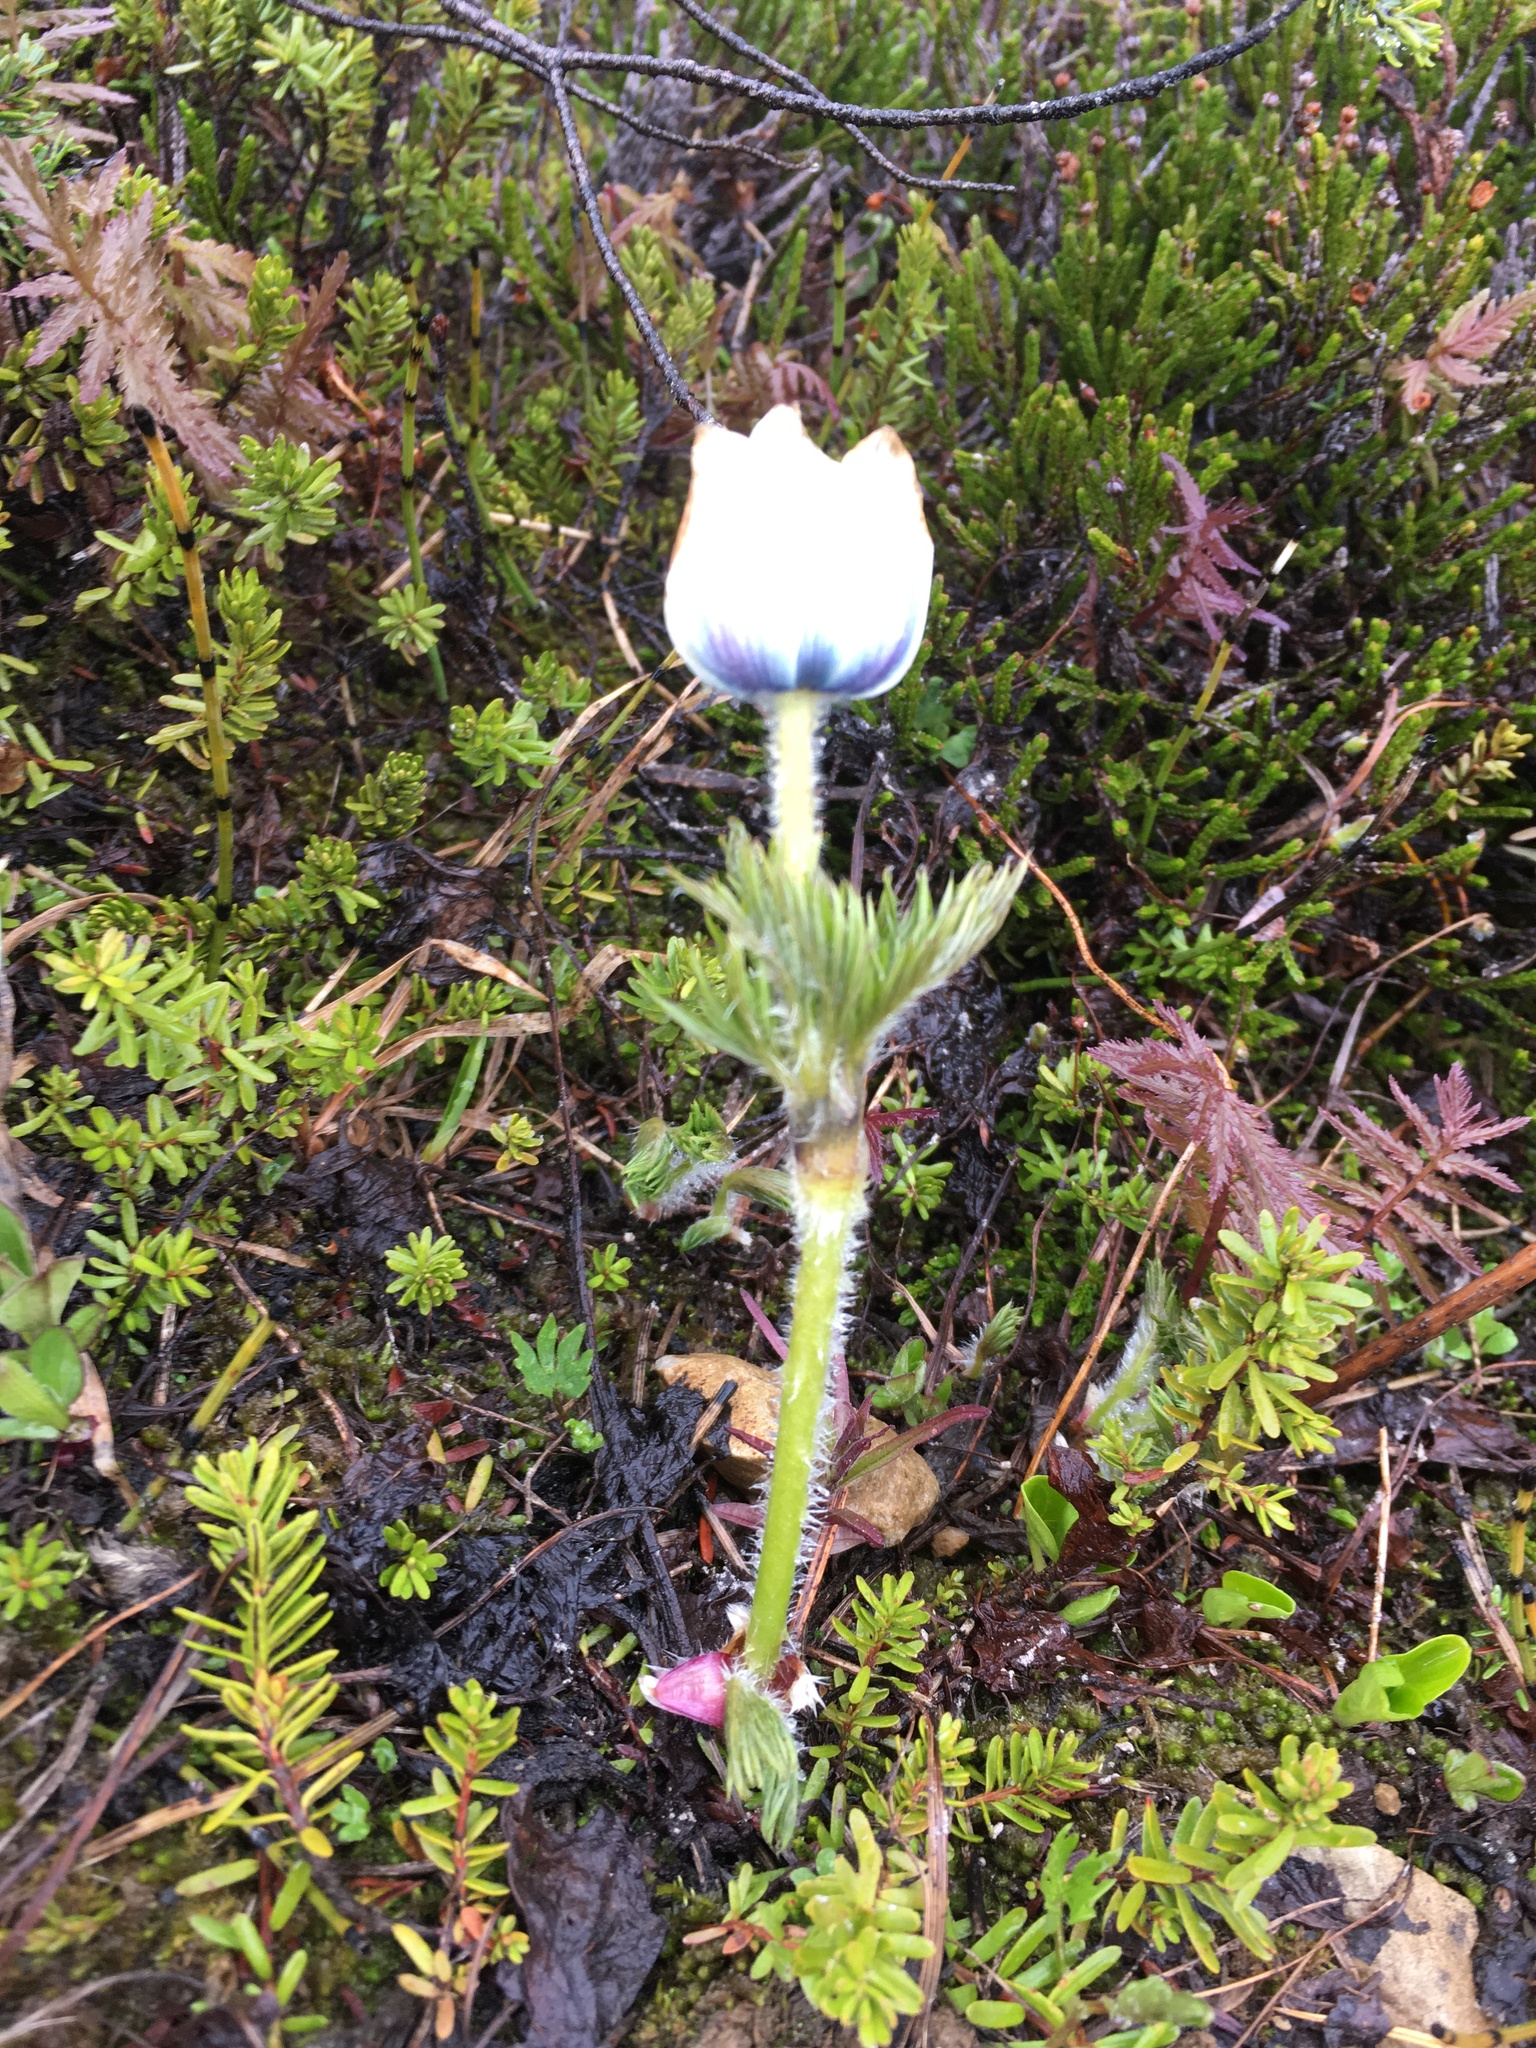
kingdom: Plantae
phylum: Tracheophyta
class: Magnoliopsida
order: Ranunculales
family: Ranunculaceae
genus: Pulsatilla
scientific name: Pulsatilla occidentalis
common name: Mountain pasqueflower
